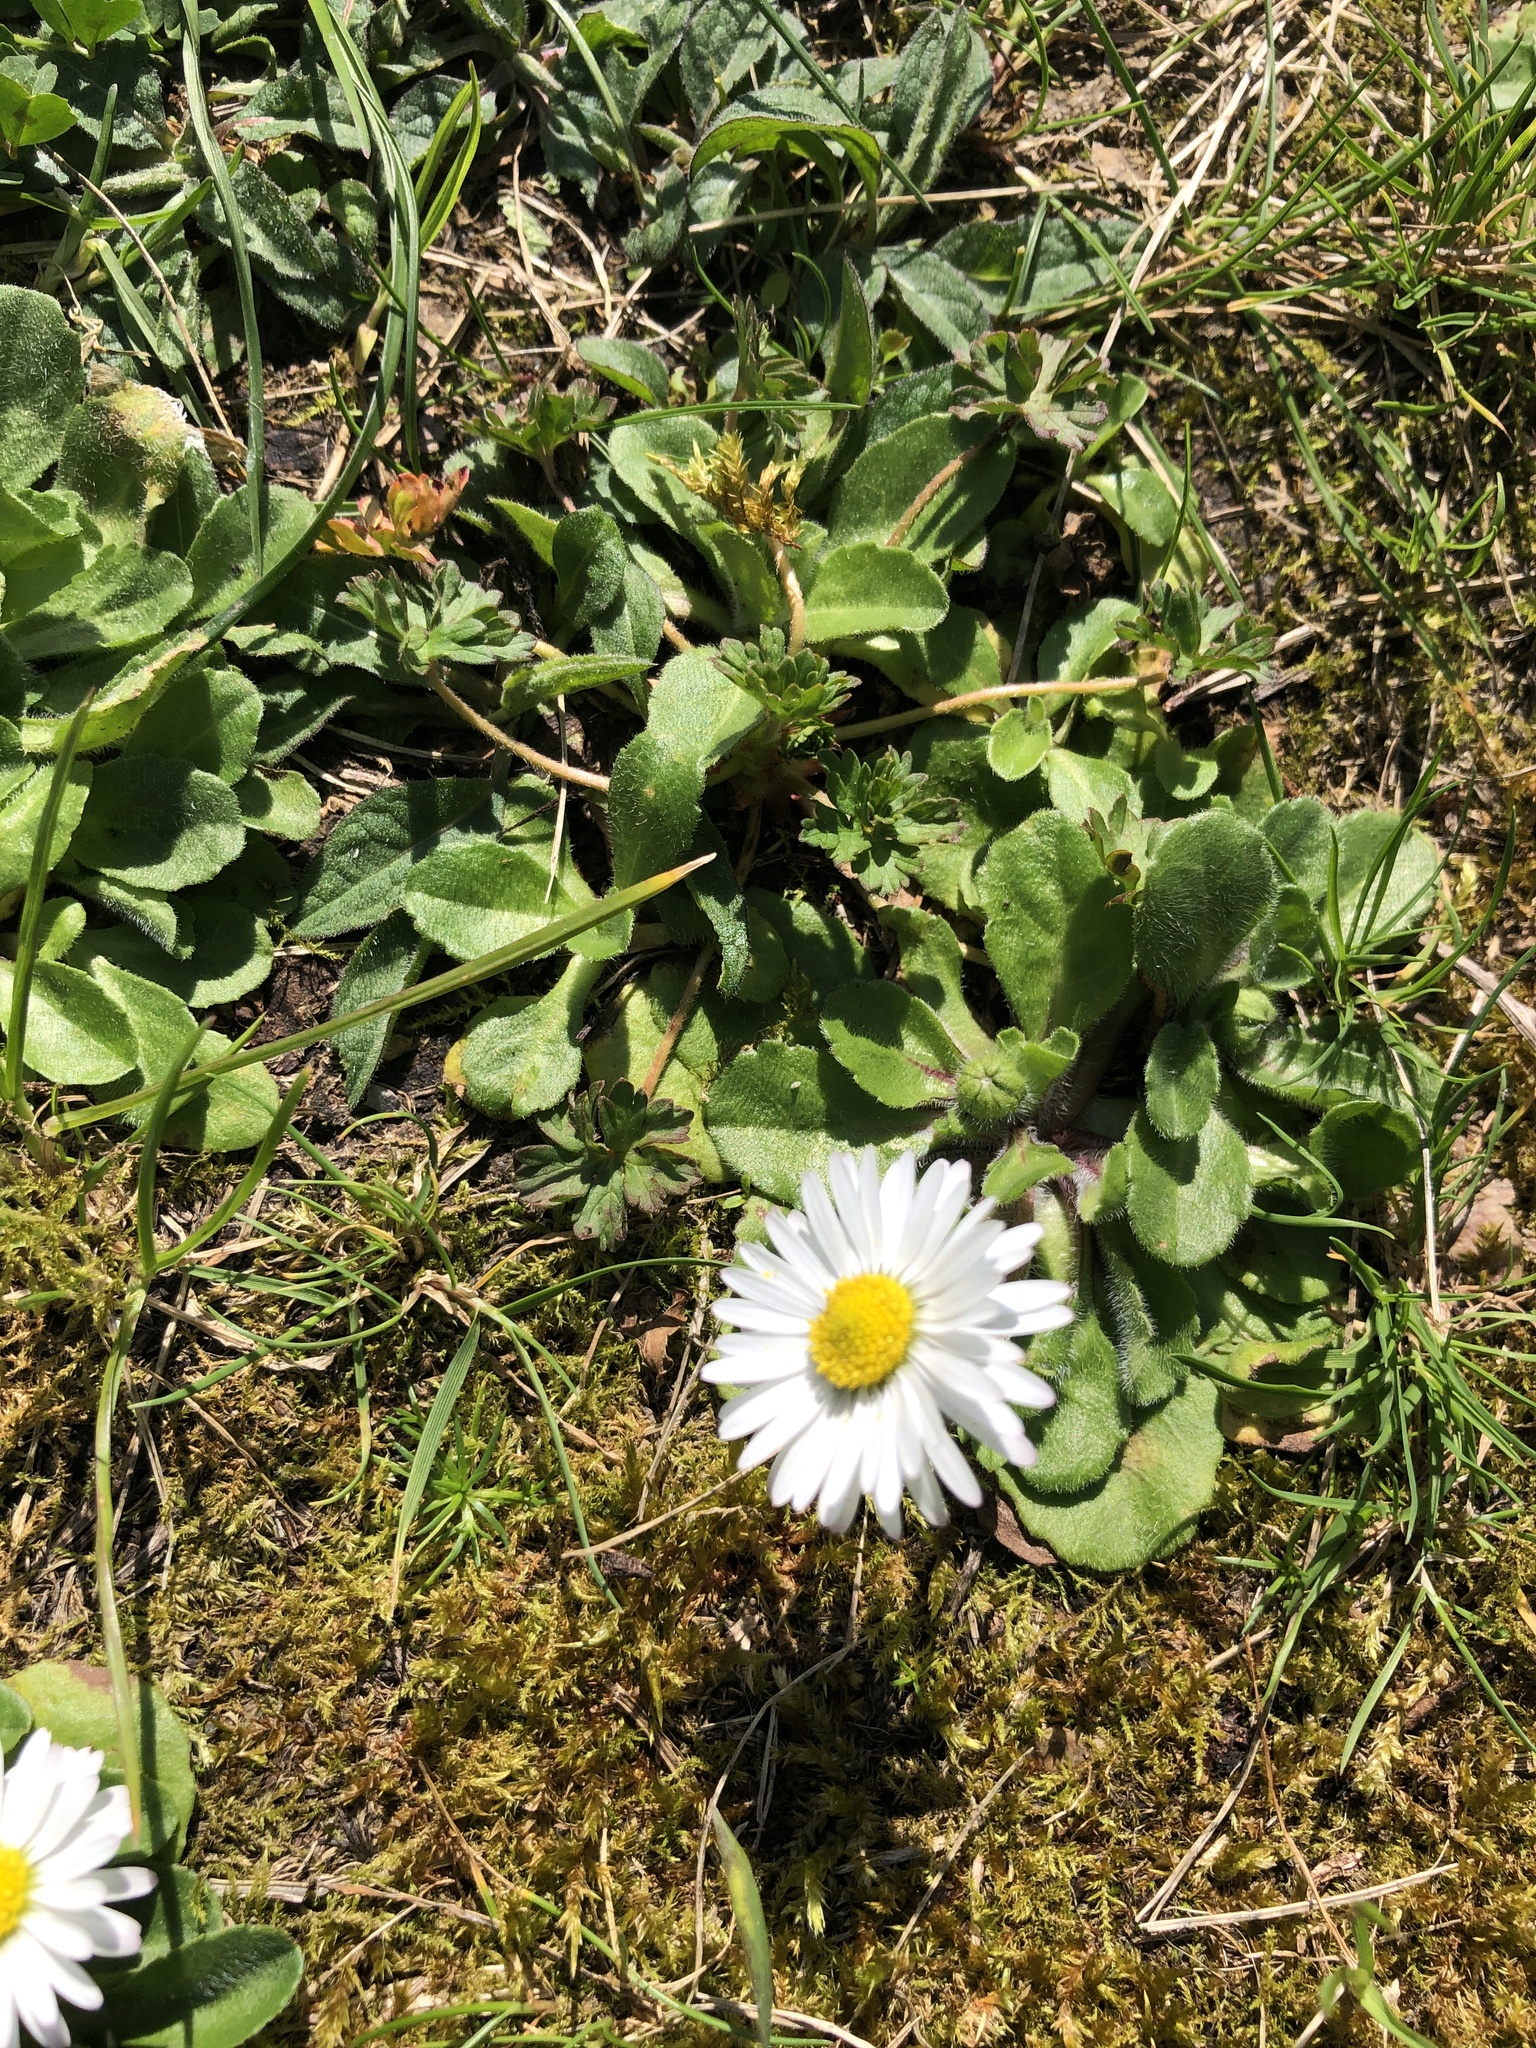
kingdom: Plantae
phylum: Tracheophyta
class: Magnoliopsida
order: Asterales
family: Asteraceae
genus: Bellis
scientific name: Bellis perennis
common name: Lawndaisy
